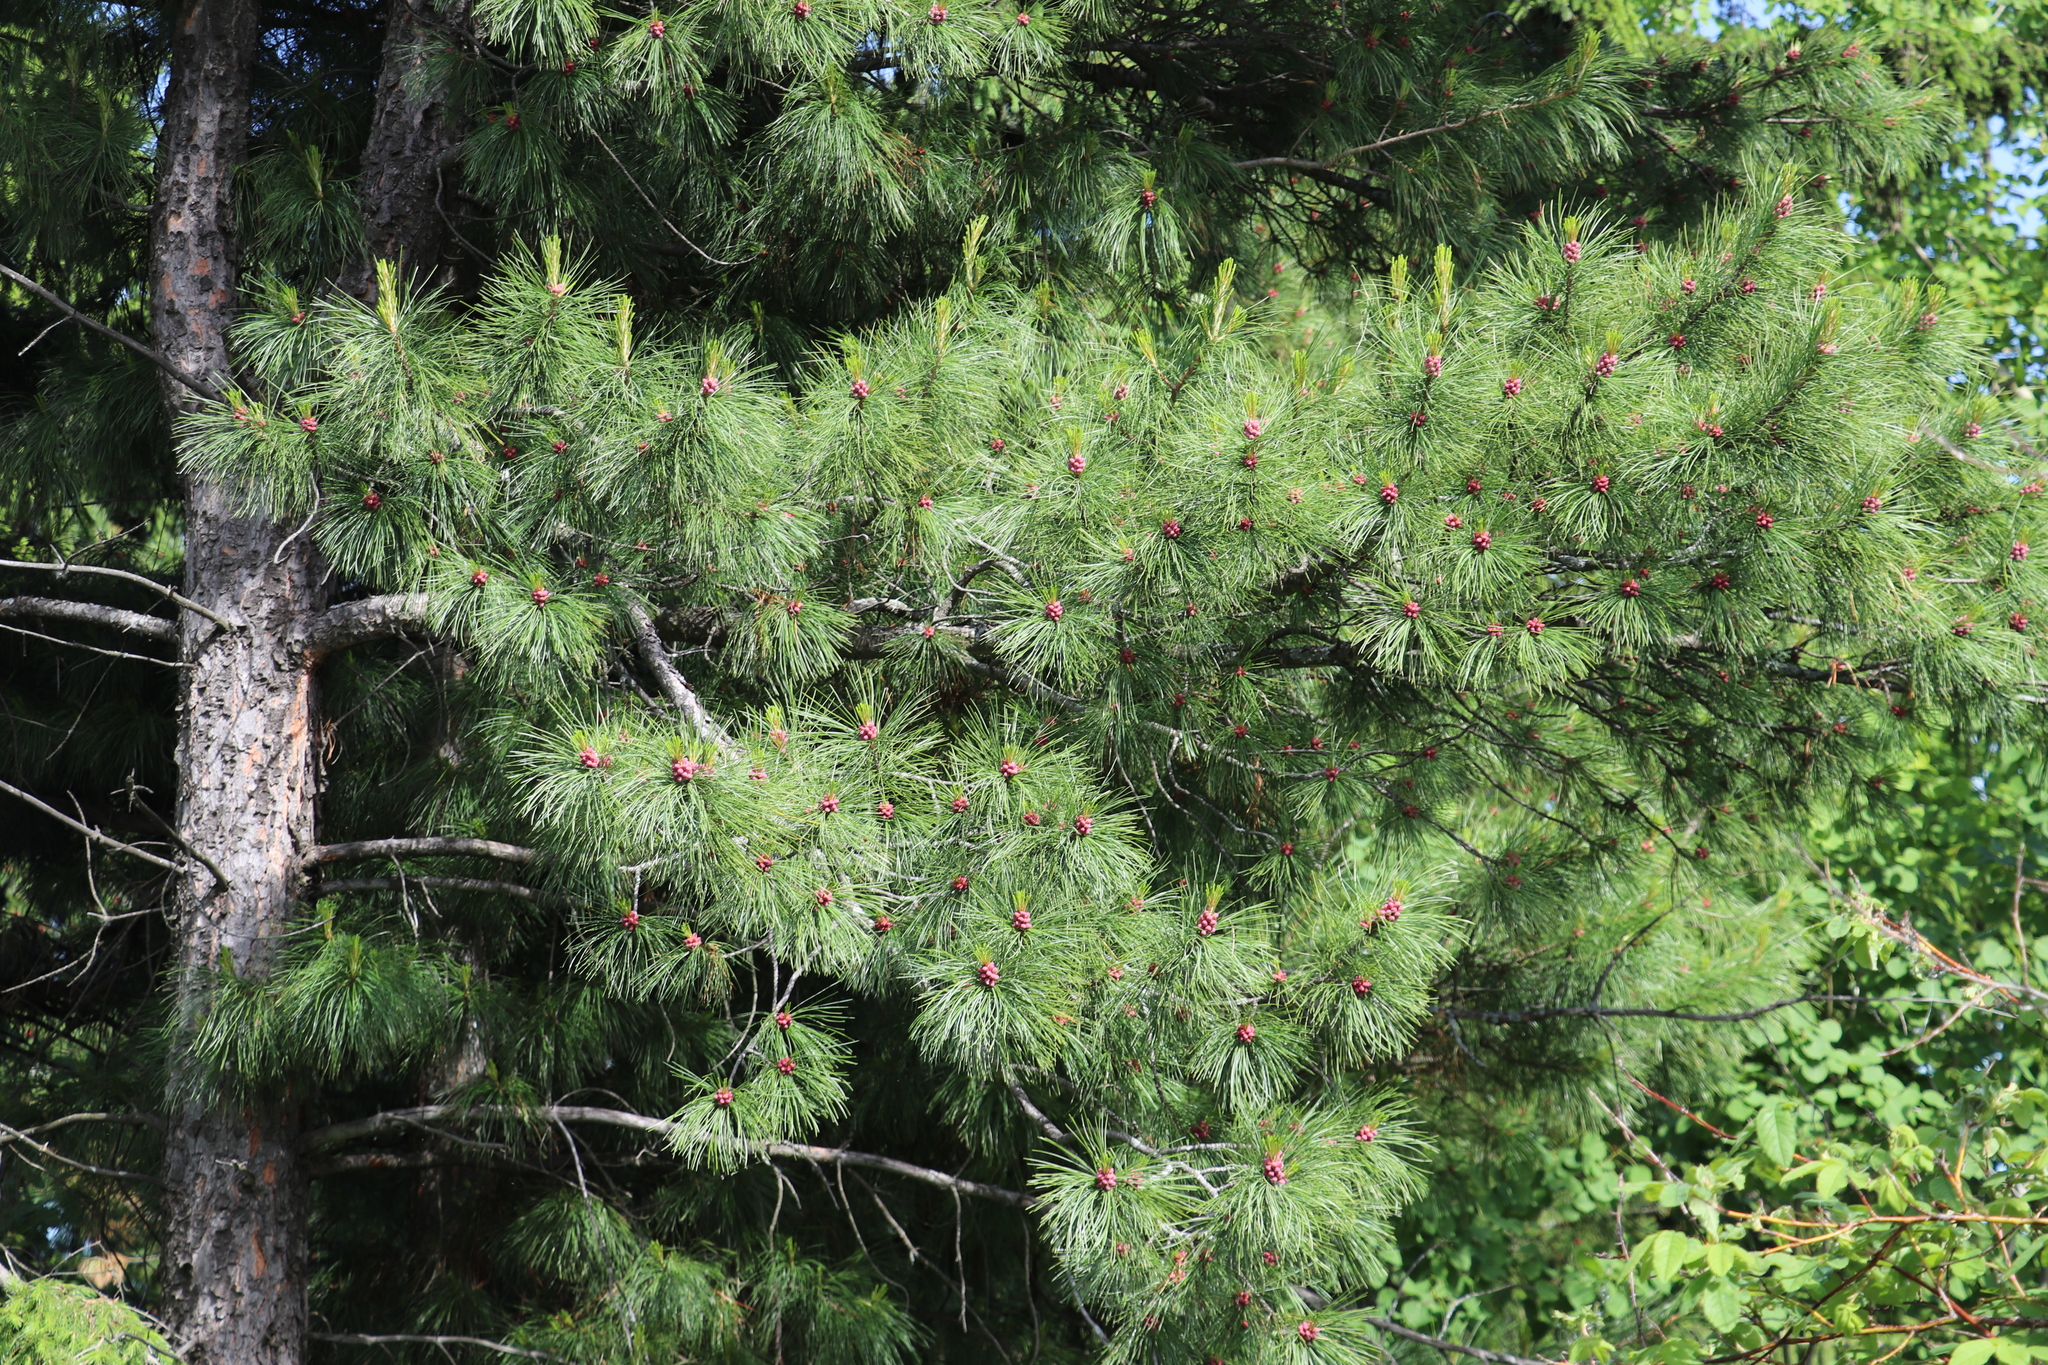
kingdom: Plantae
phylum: Tracheophyta
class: Pinopsida
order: Pinales
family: Pinaceae
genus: Pinus
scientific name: Pinus sibirica
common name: Siberian pine
